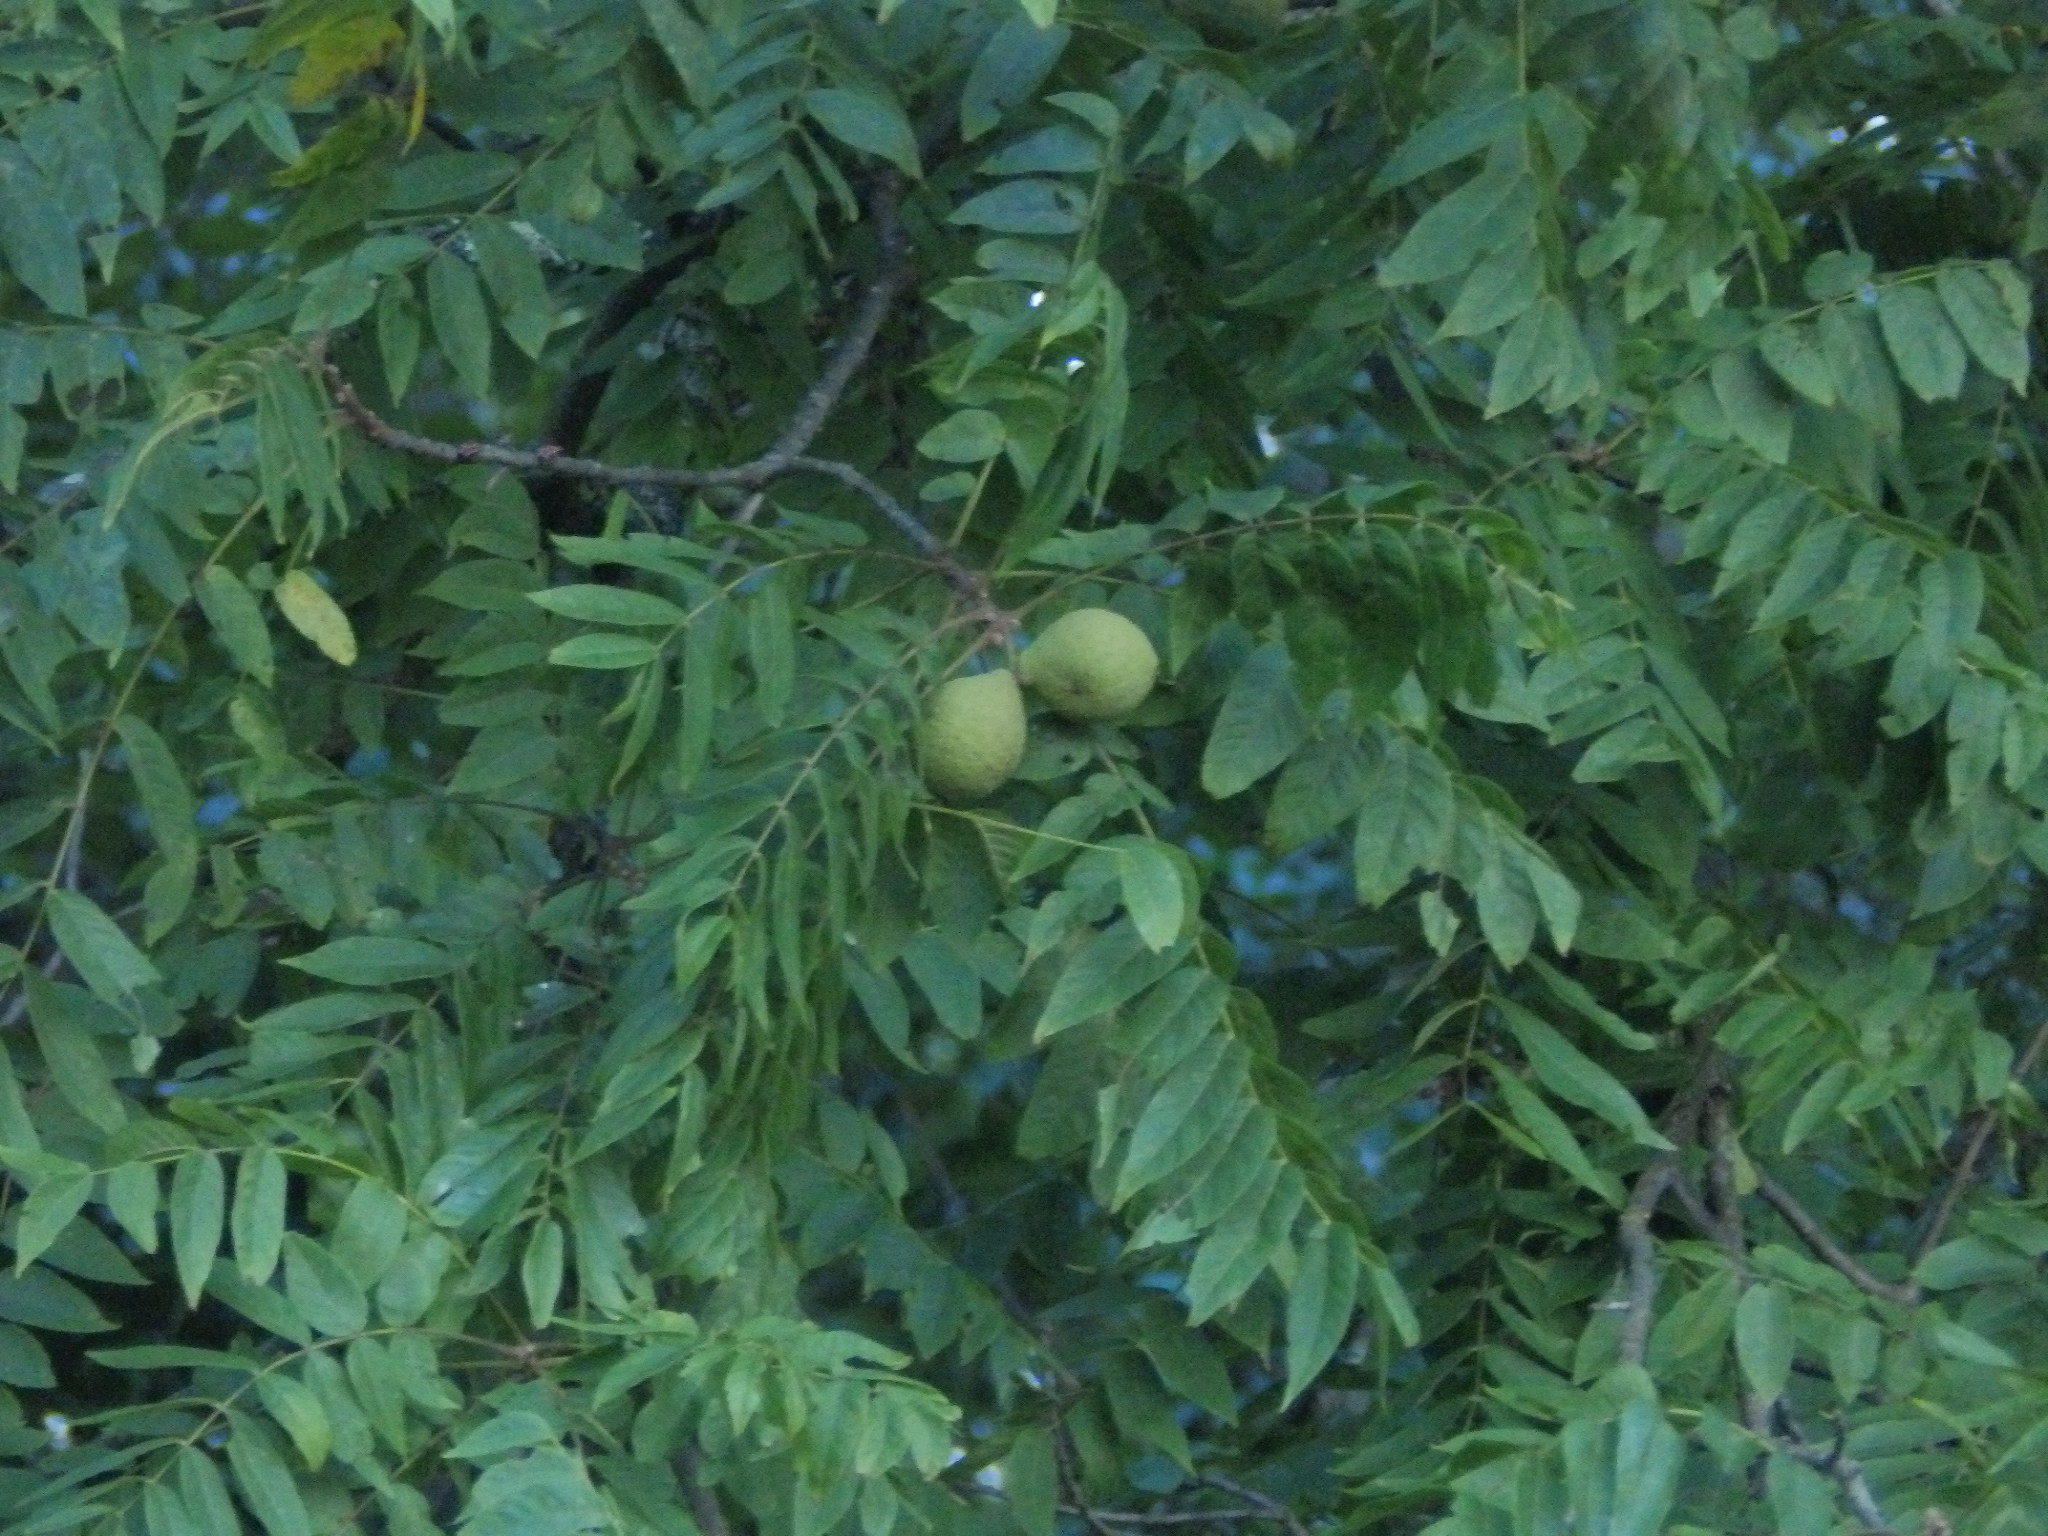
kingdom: Plantae
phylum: Tracheophyta
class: Magnoliopsida
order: Fagales
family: Juglandaceae
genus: Juglans
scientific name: Juglans nigra
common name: Black walnut
